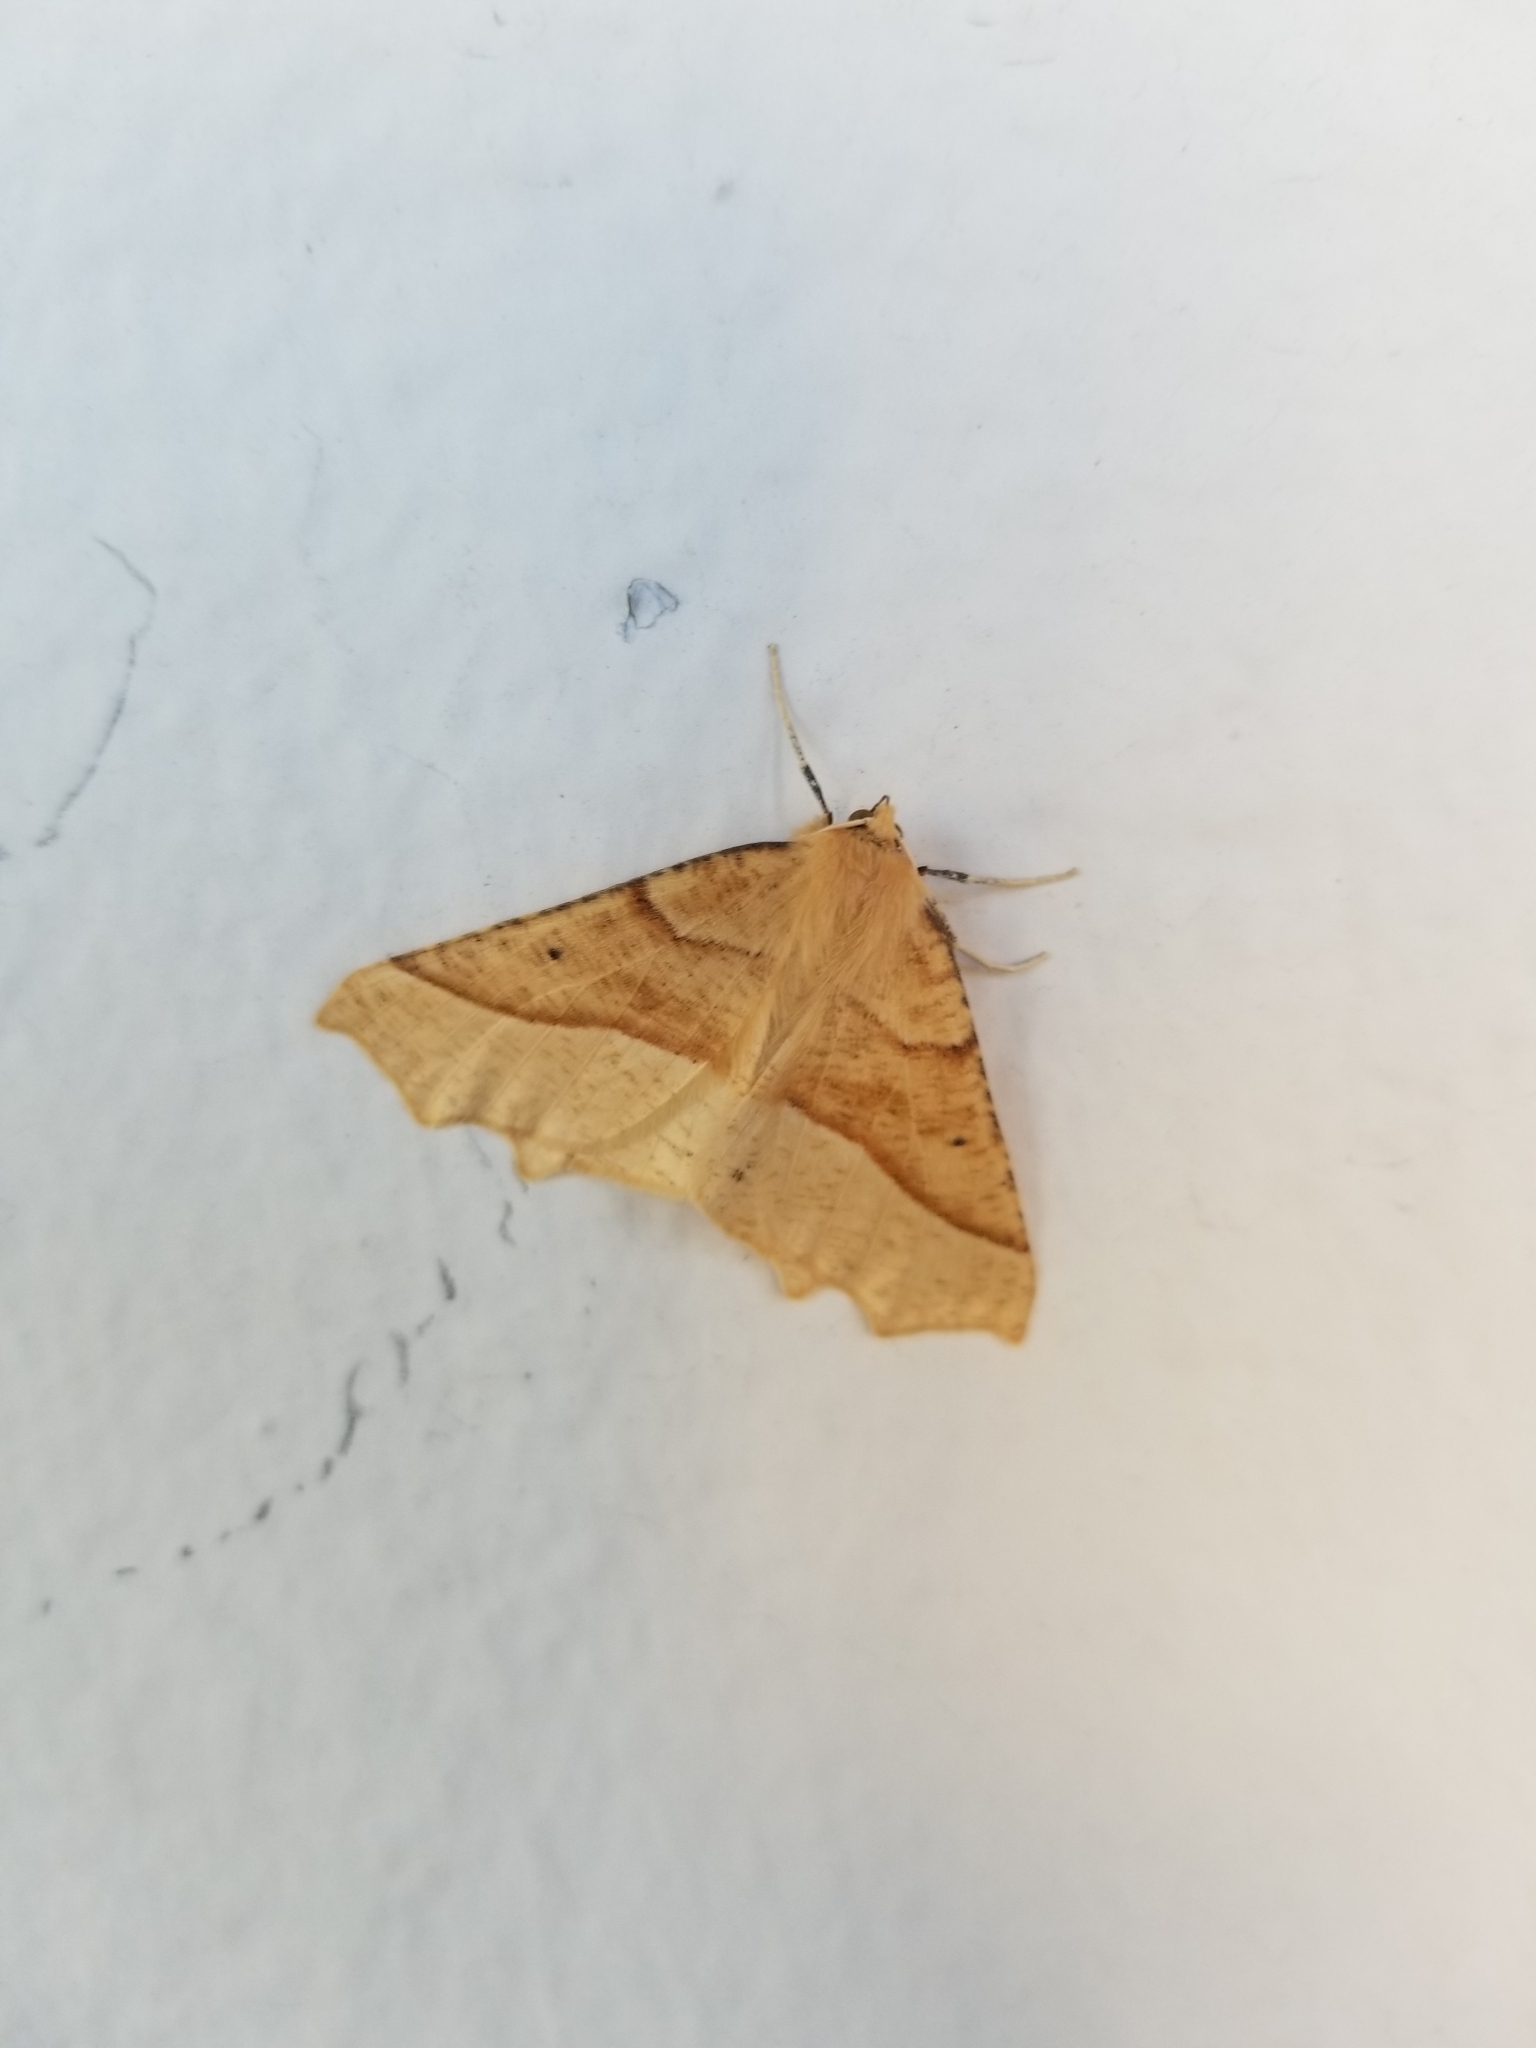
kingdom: Animalia
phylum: Arthropoda
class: Insecta
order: Lepidoptera
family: Geometridae
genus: Synaxis
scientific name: Synaxis jubararia
